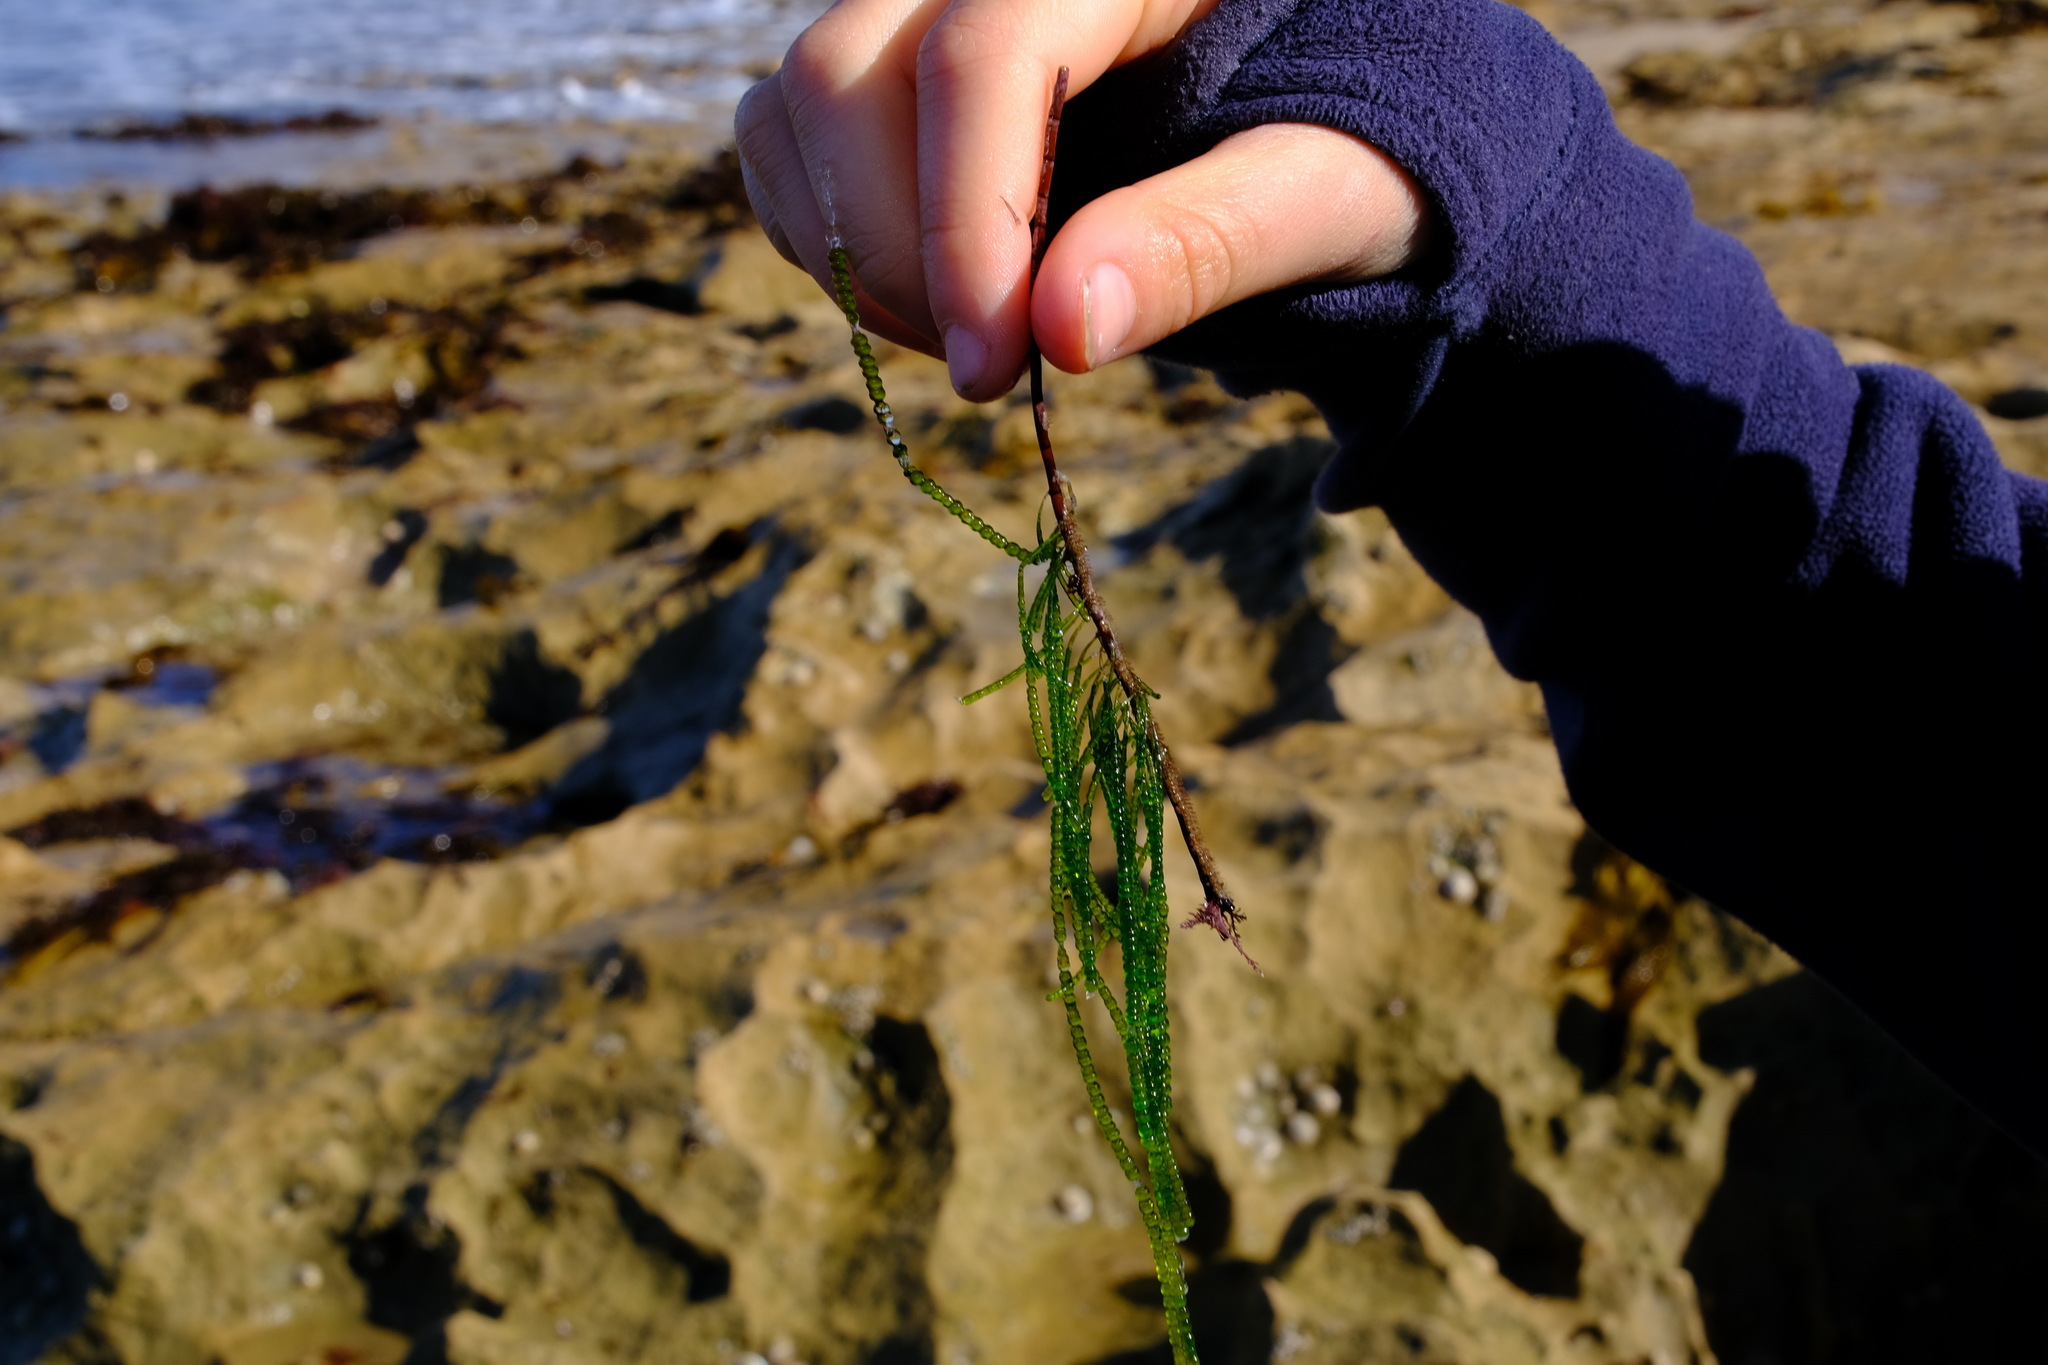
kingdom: Plantae
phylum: Chlorophyta
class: Ulvophyceae
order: Cladophorales
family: Cladophoraceae
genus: Chaetomorpha
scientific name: Chaetomorpha coliformis
